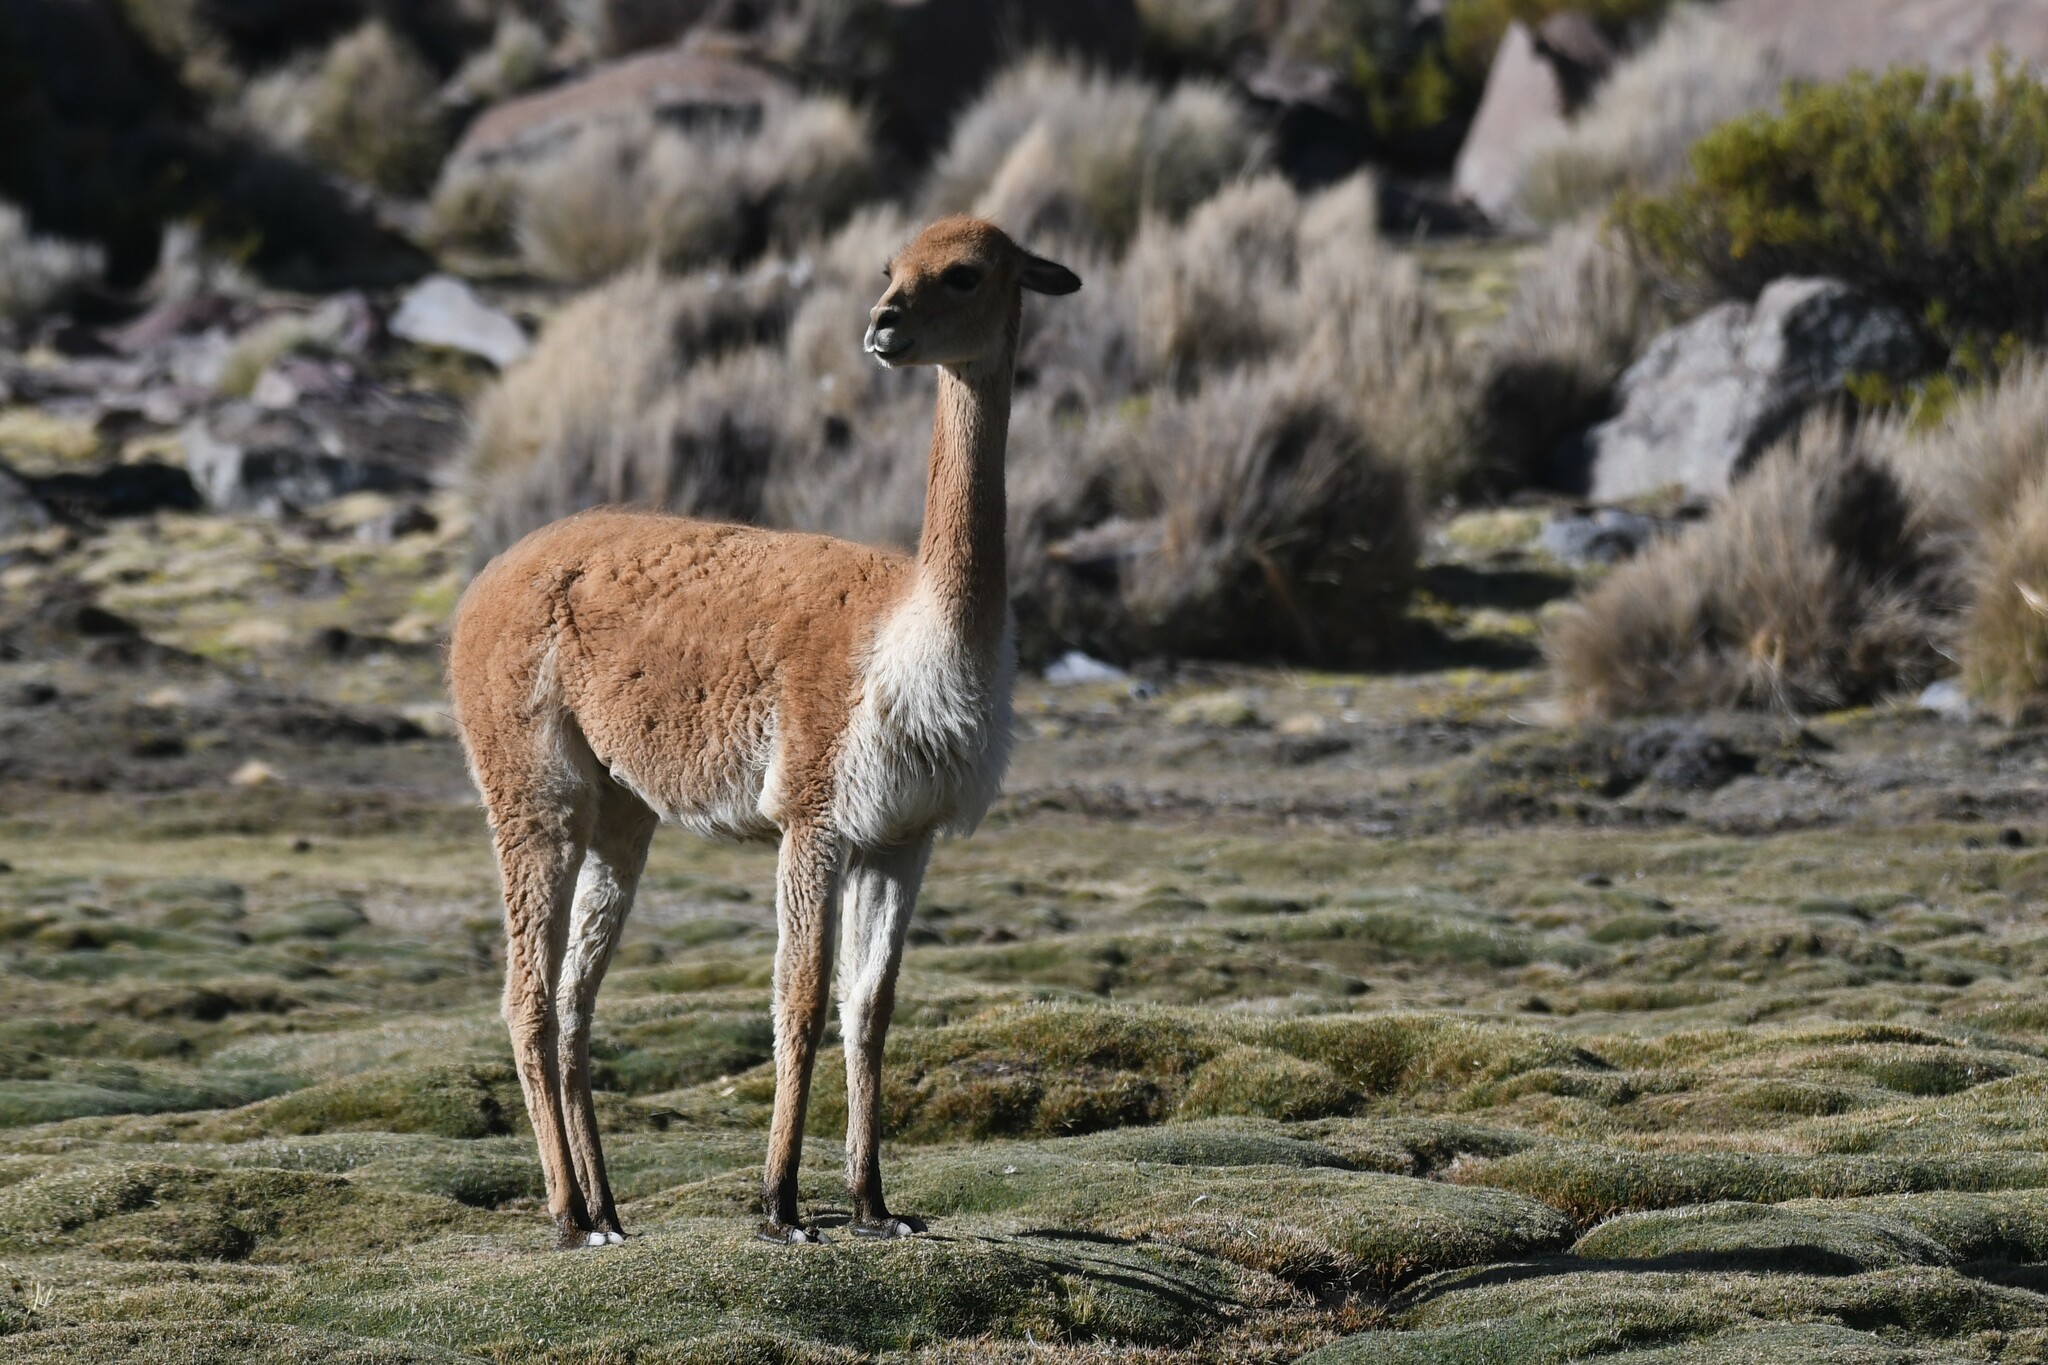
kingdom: Animalia
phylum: Chordata
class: Mammalia
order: Artiodactyla
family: Camelidae
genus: Vicugna
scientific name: Vicugna vicugna
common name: Vicugna
